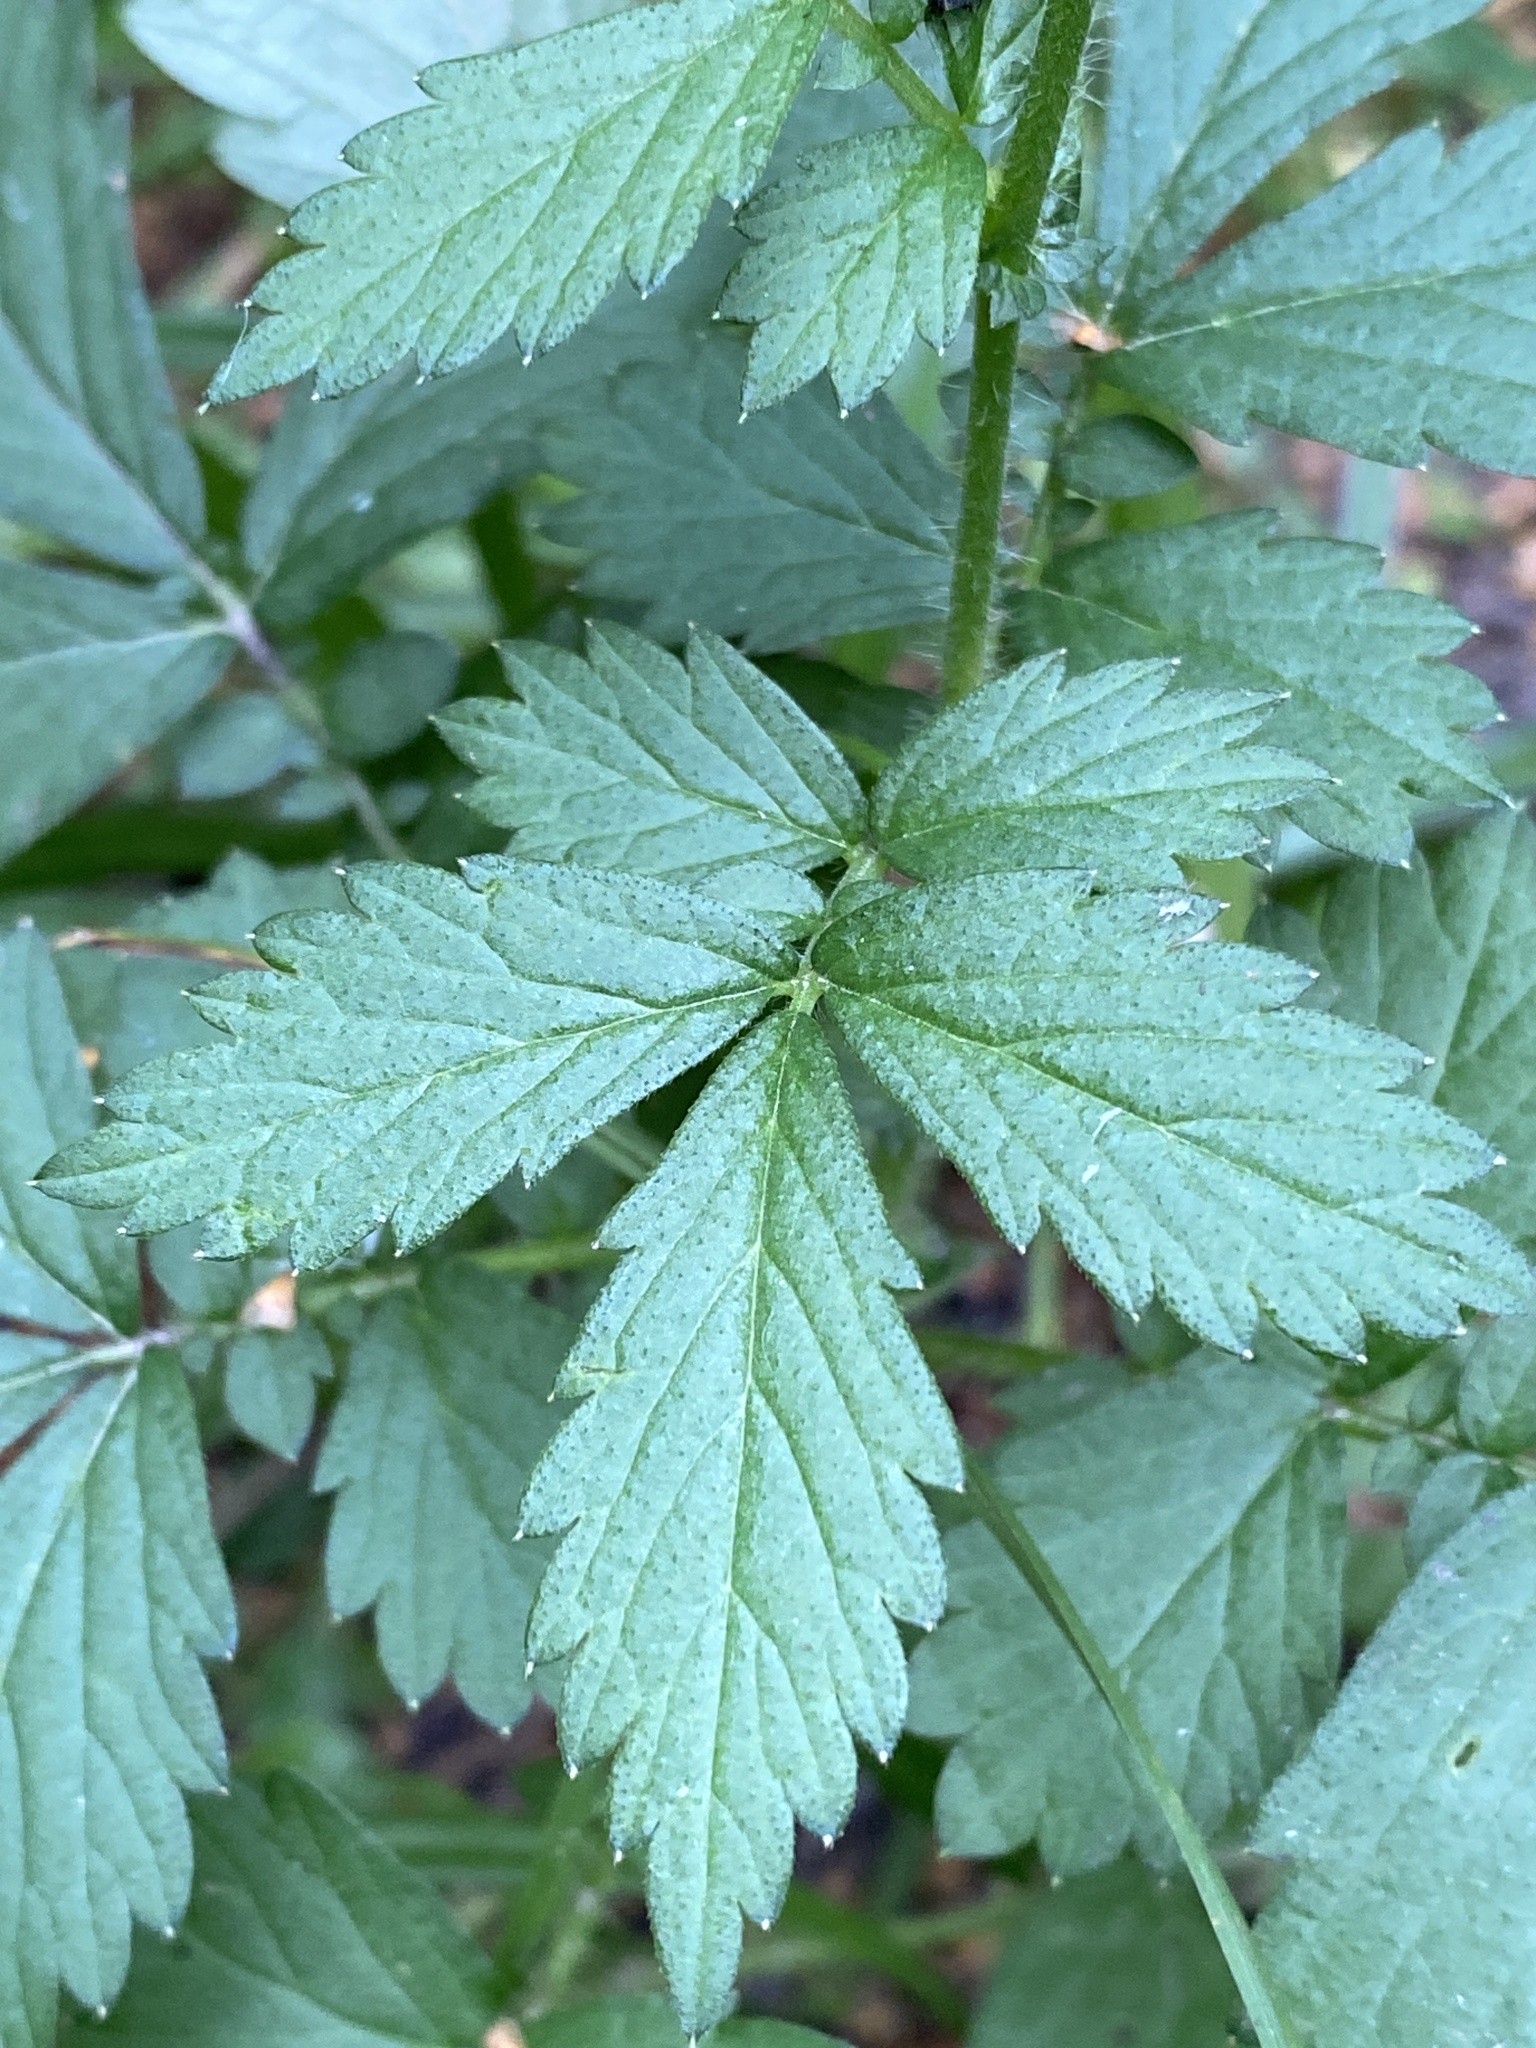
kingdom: Plantae
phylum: Tracheophyta
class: Magnoliopsida
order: Rosales
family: Rosaceae
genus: Agrimonia
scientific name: Agrimonia pilosa
